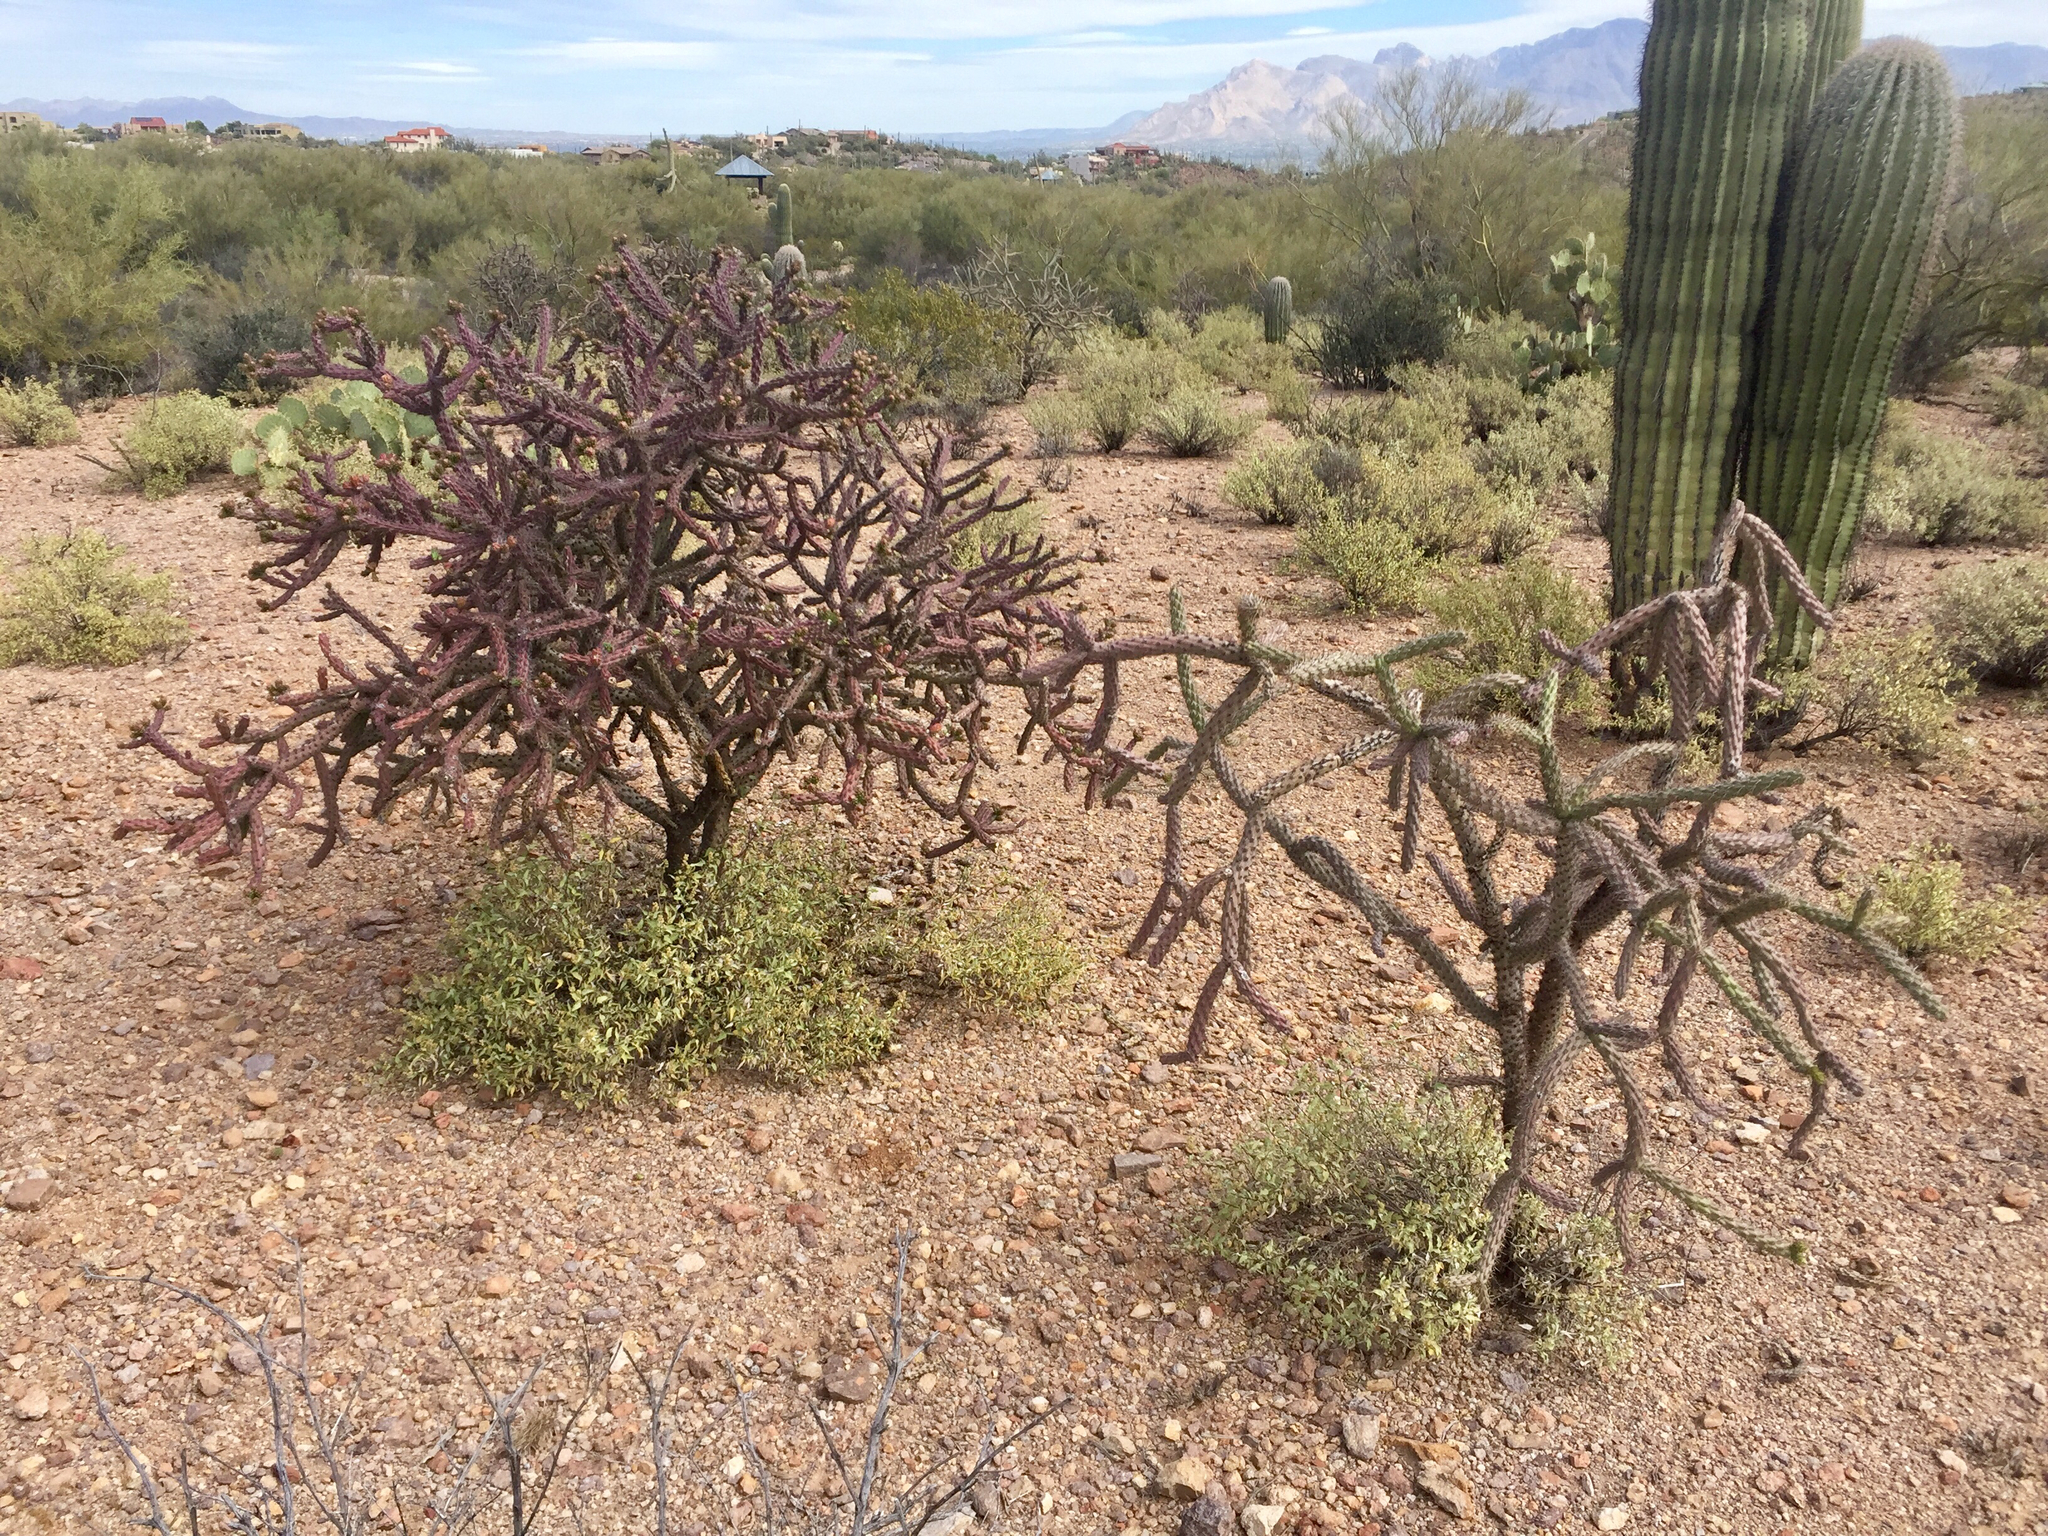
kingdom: Plantae
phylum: Tracheophyta
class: Magnoliopsida
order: Caryophyllales
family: Cactaceae
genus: Cylindropuntia
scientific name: Cylindropuntia thurberi
